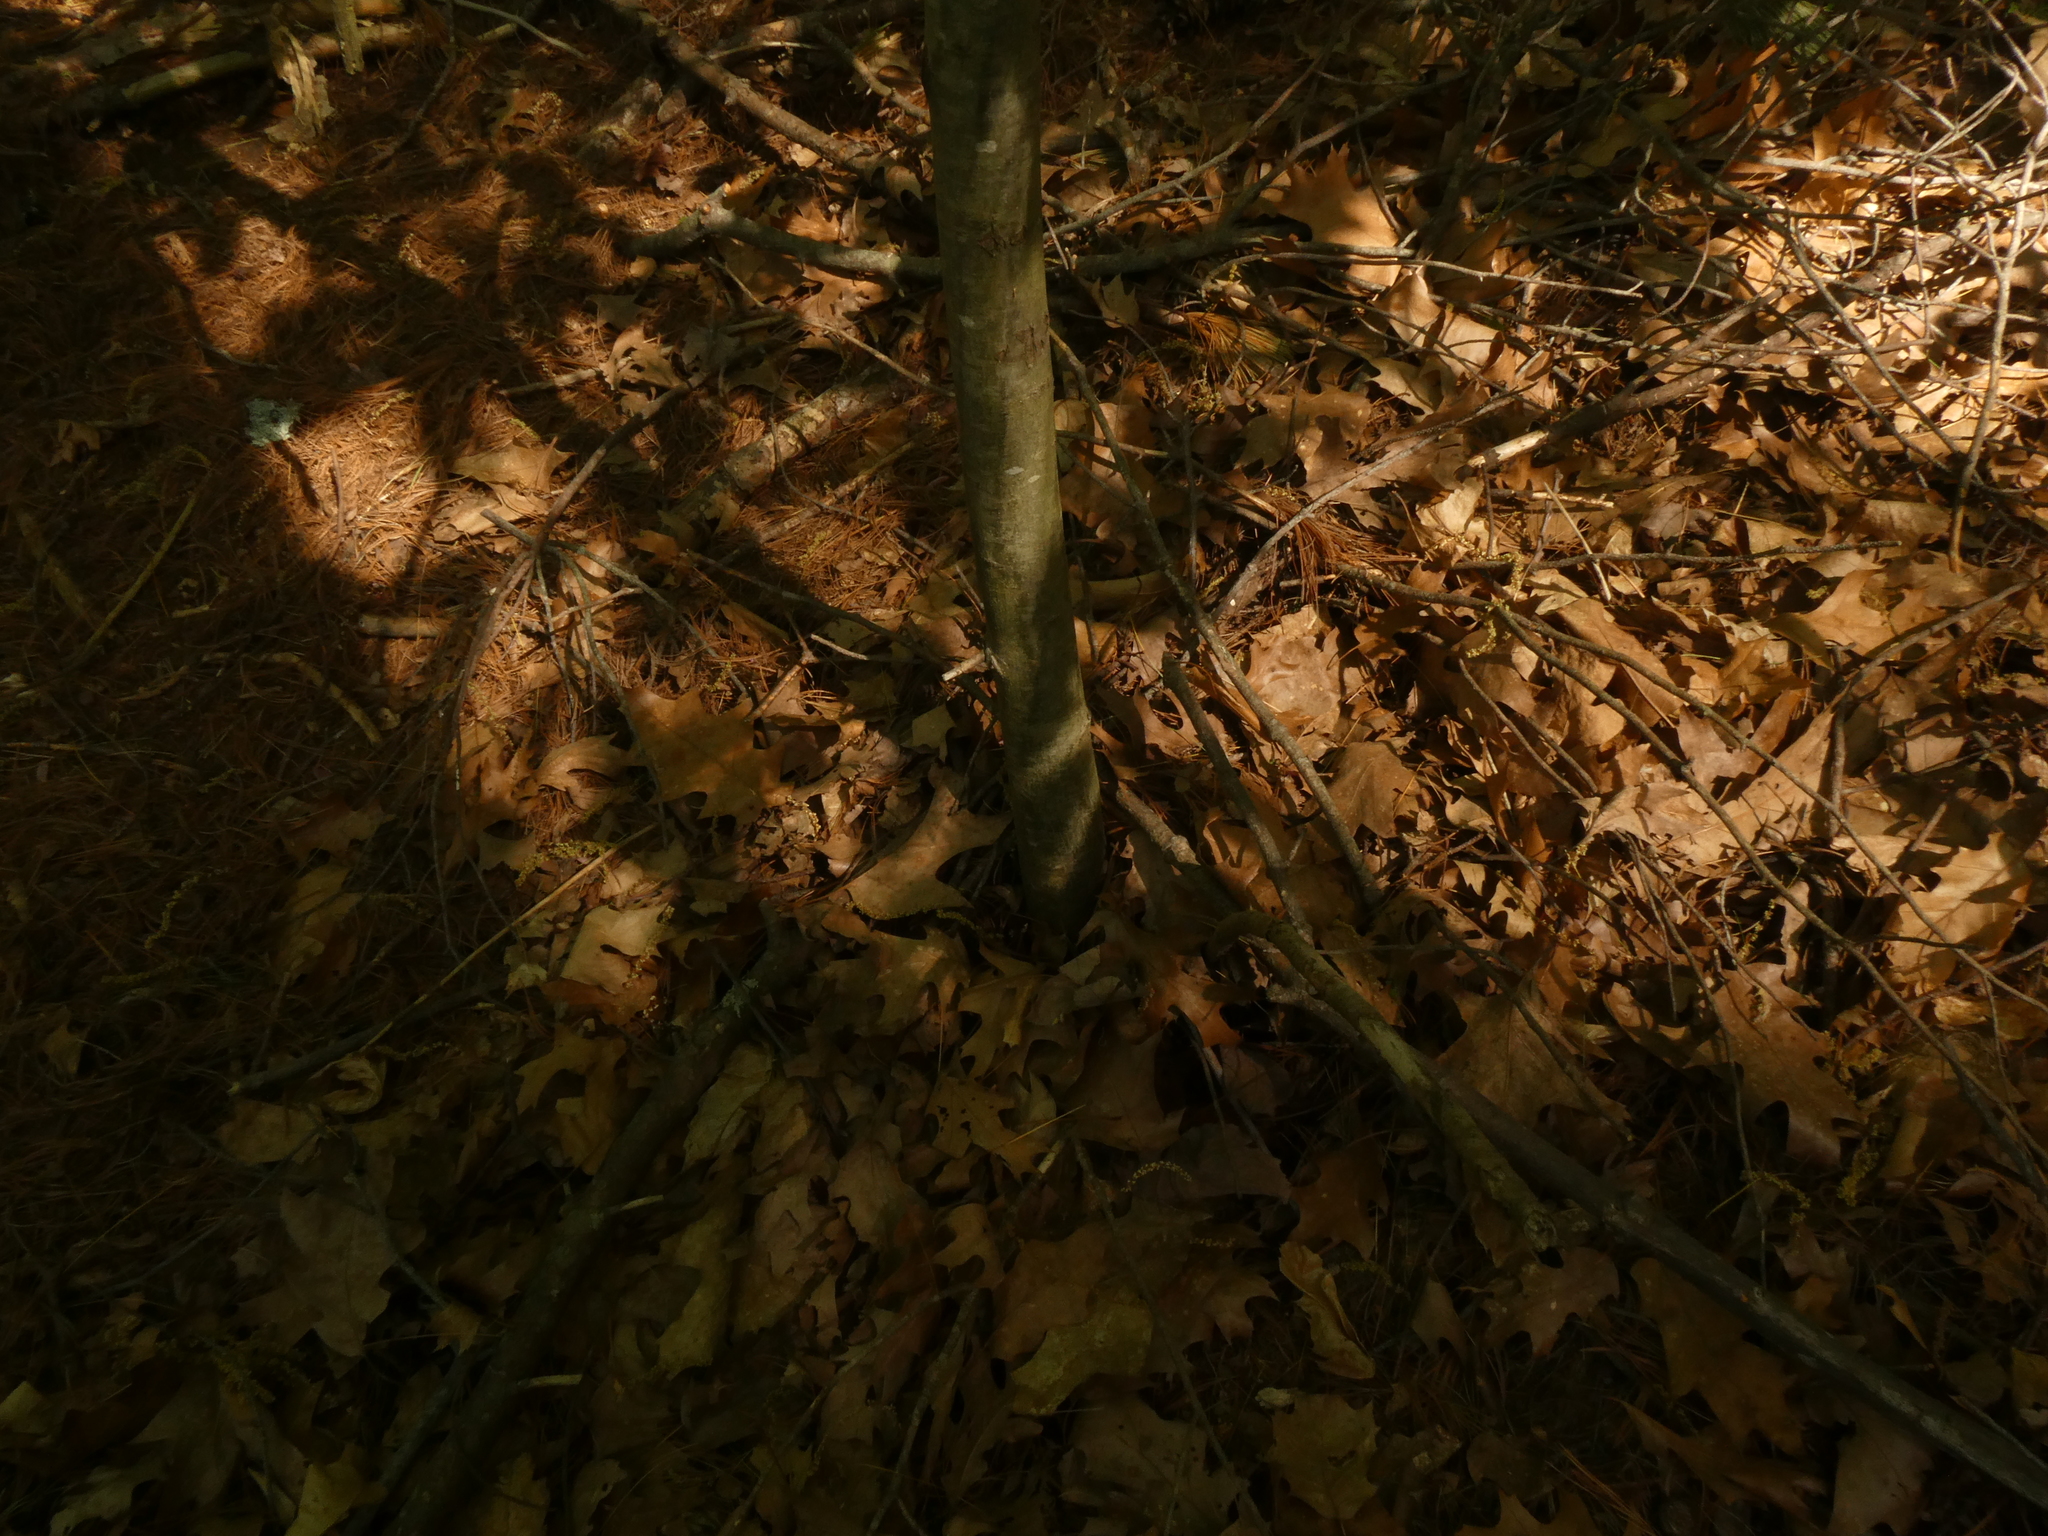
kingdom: Plantae
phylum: Tracheophyta
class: Magnoliopsida
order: Fagales
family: Fagaceae
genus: Castanea
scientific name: Castanea dentata
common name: American chestnut
